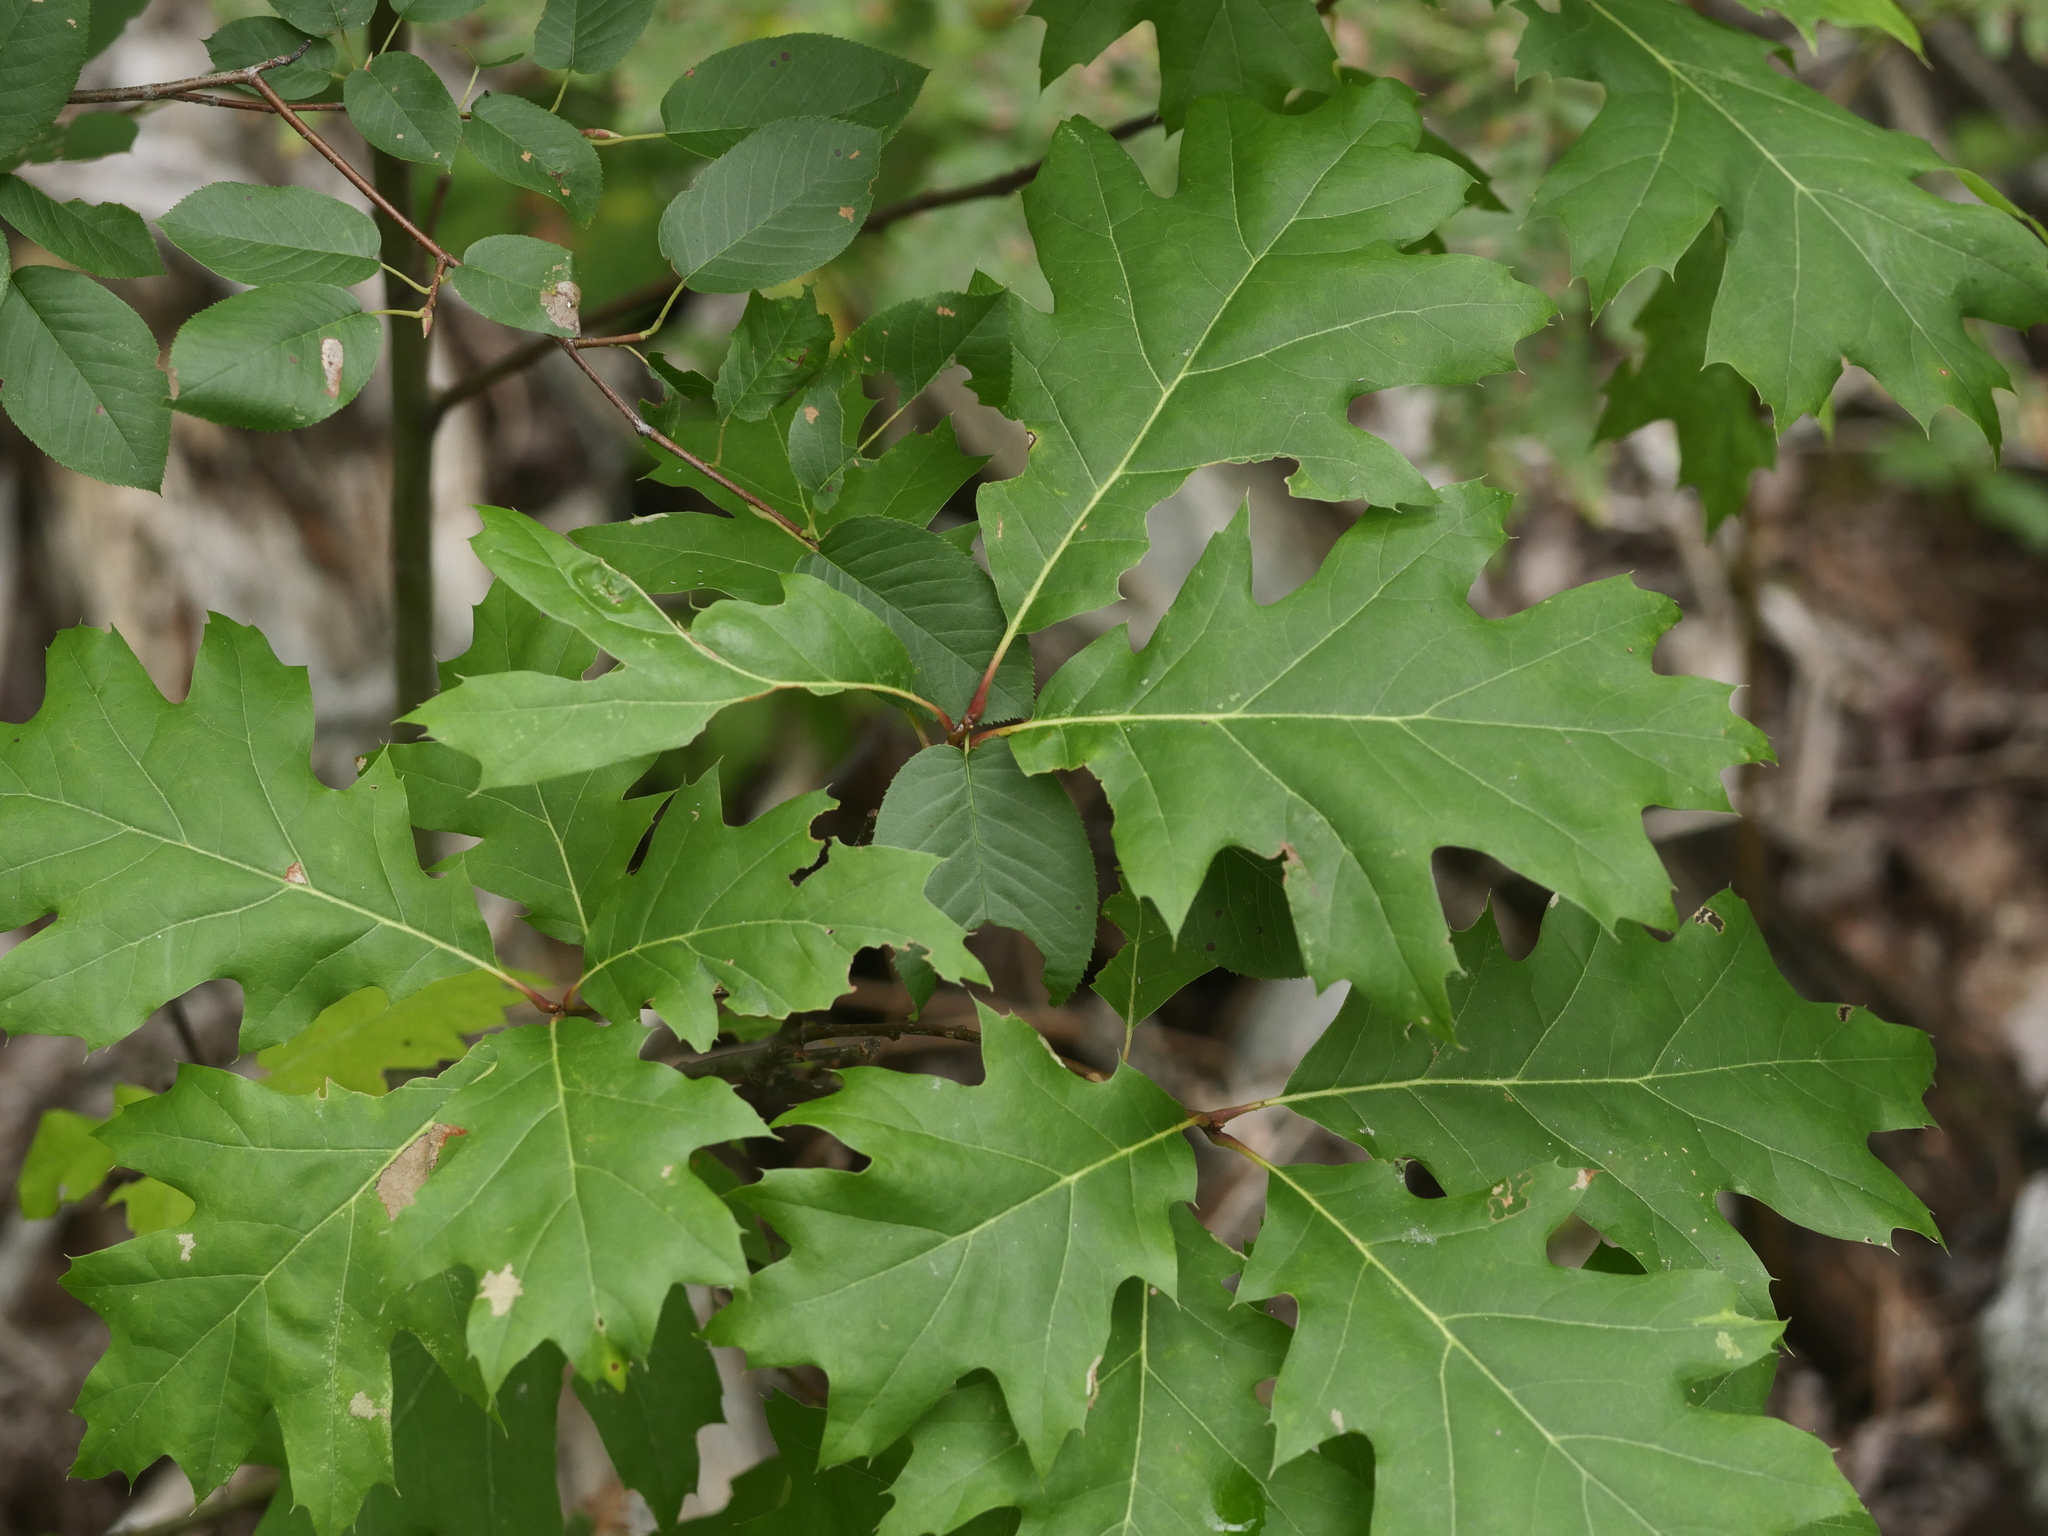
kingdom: Plantae
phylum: Tracheophyta
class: Magnoliopsida
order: Fagales
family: Fagaceae
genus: Quercus
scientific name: Quercus rubra
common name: Red oak
